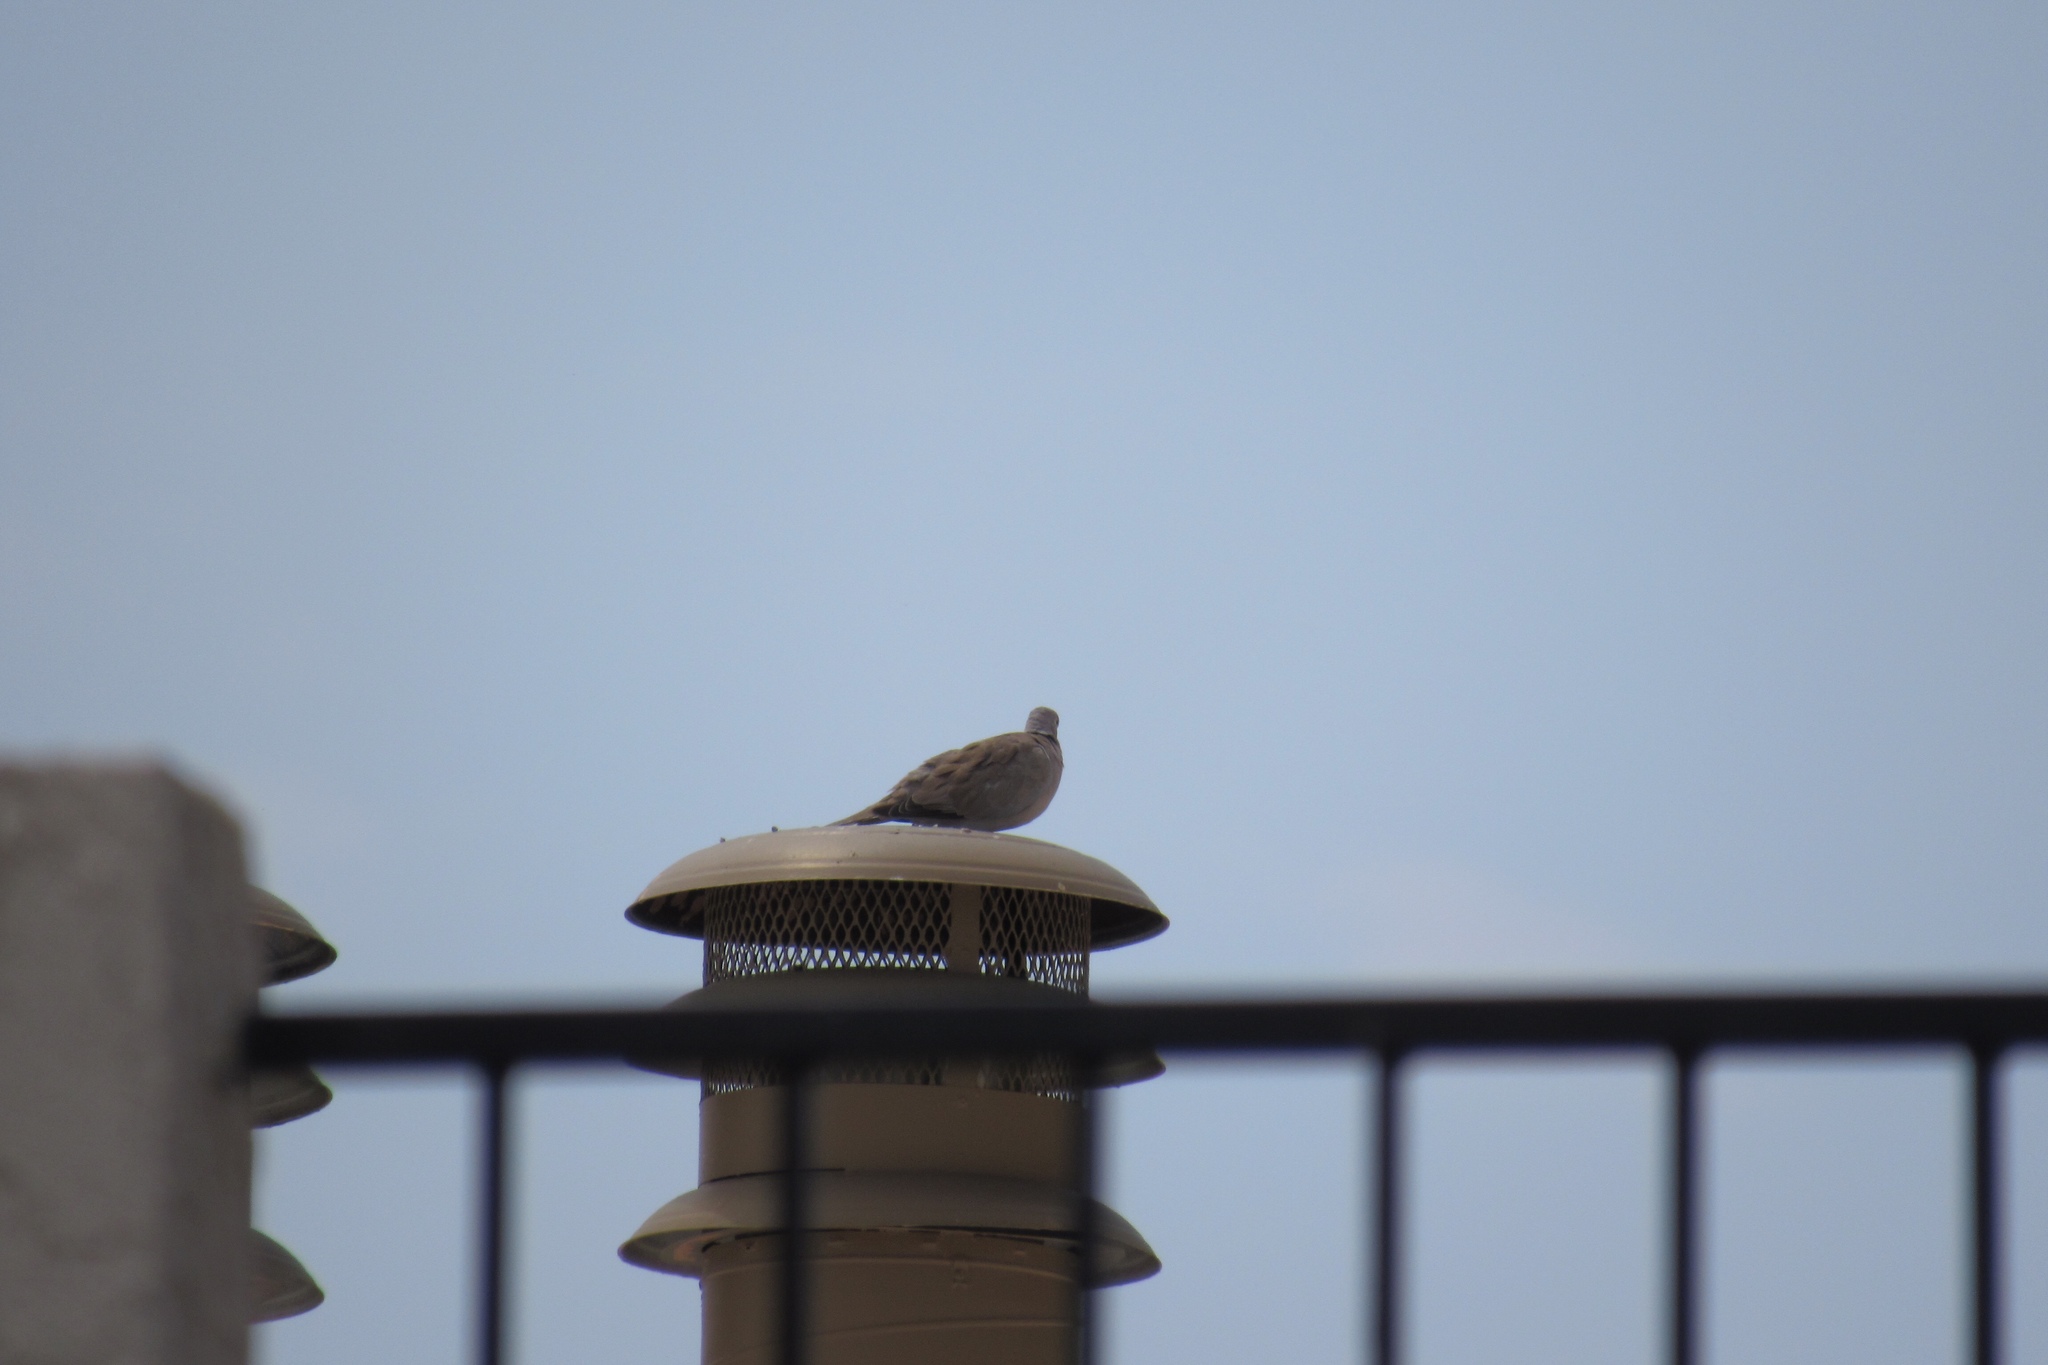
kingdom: Animalia
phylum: Chordata
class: Aves
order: Columbiformes
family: Columbidae
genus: Streptopelia
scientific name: Streptopelia decaocto
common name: Eurasian collared dove
